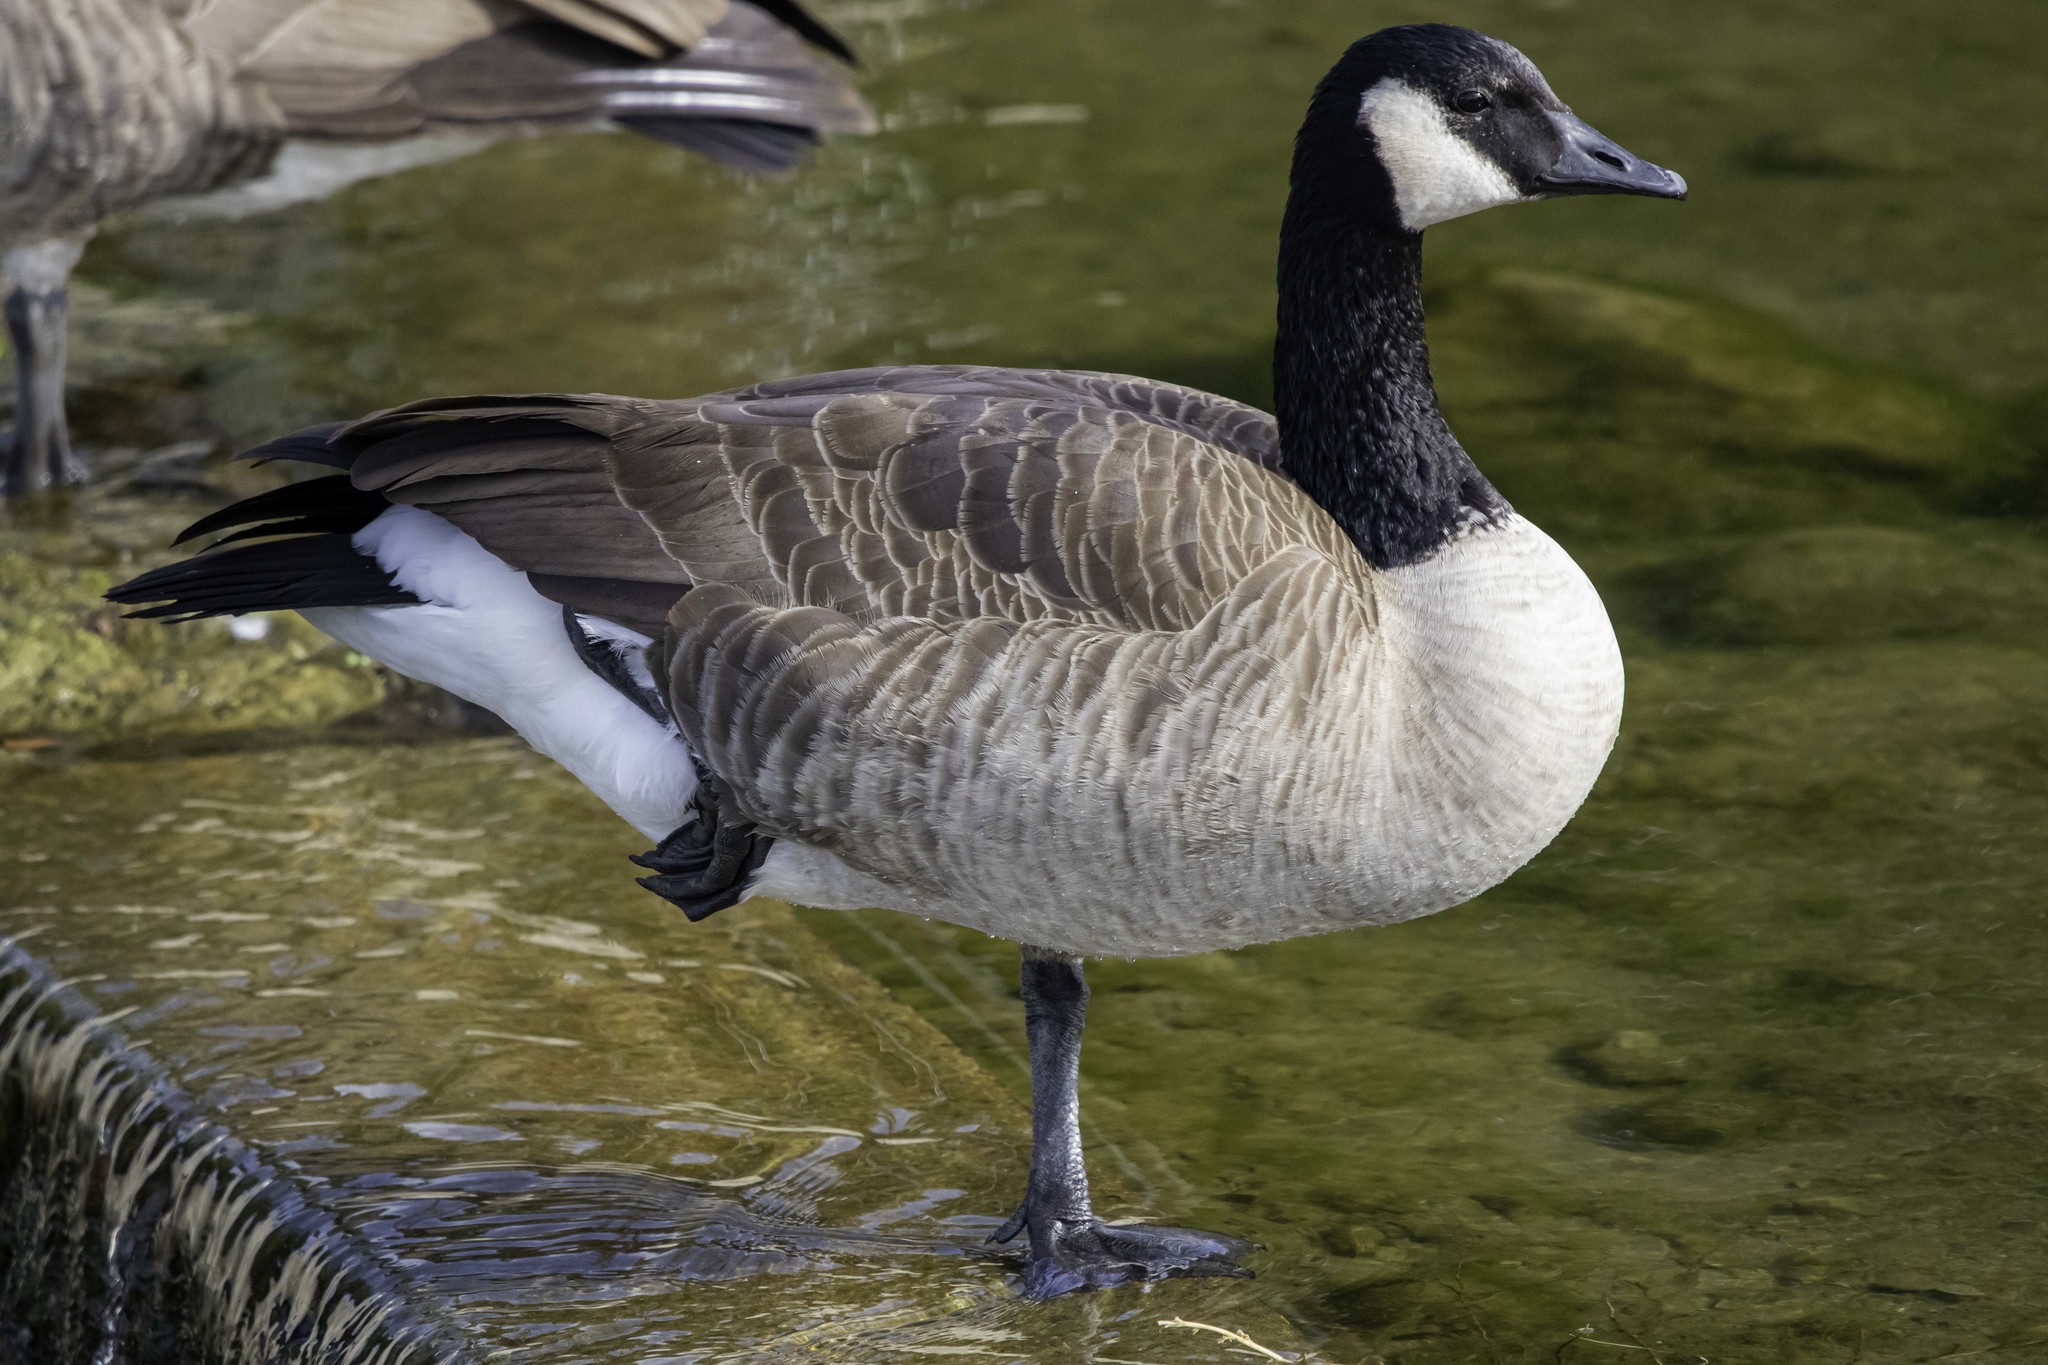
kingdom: Animalia
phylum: Chordata
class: Aves
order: Anseriformes
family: Anatidae
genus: Branta
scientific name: Branta canadensis
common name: Canada goose
